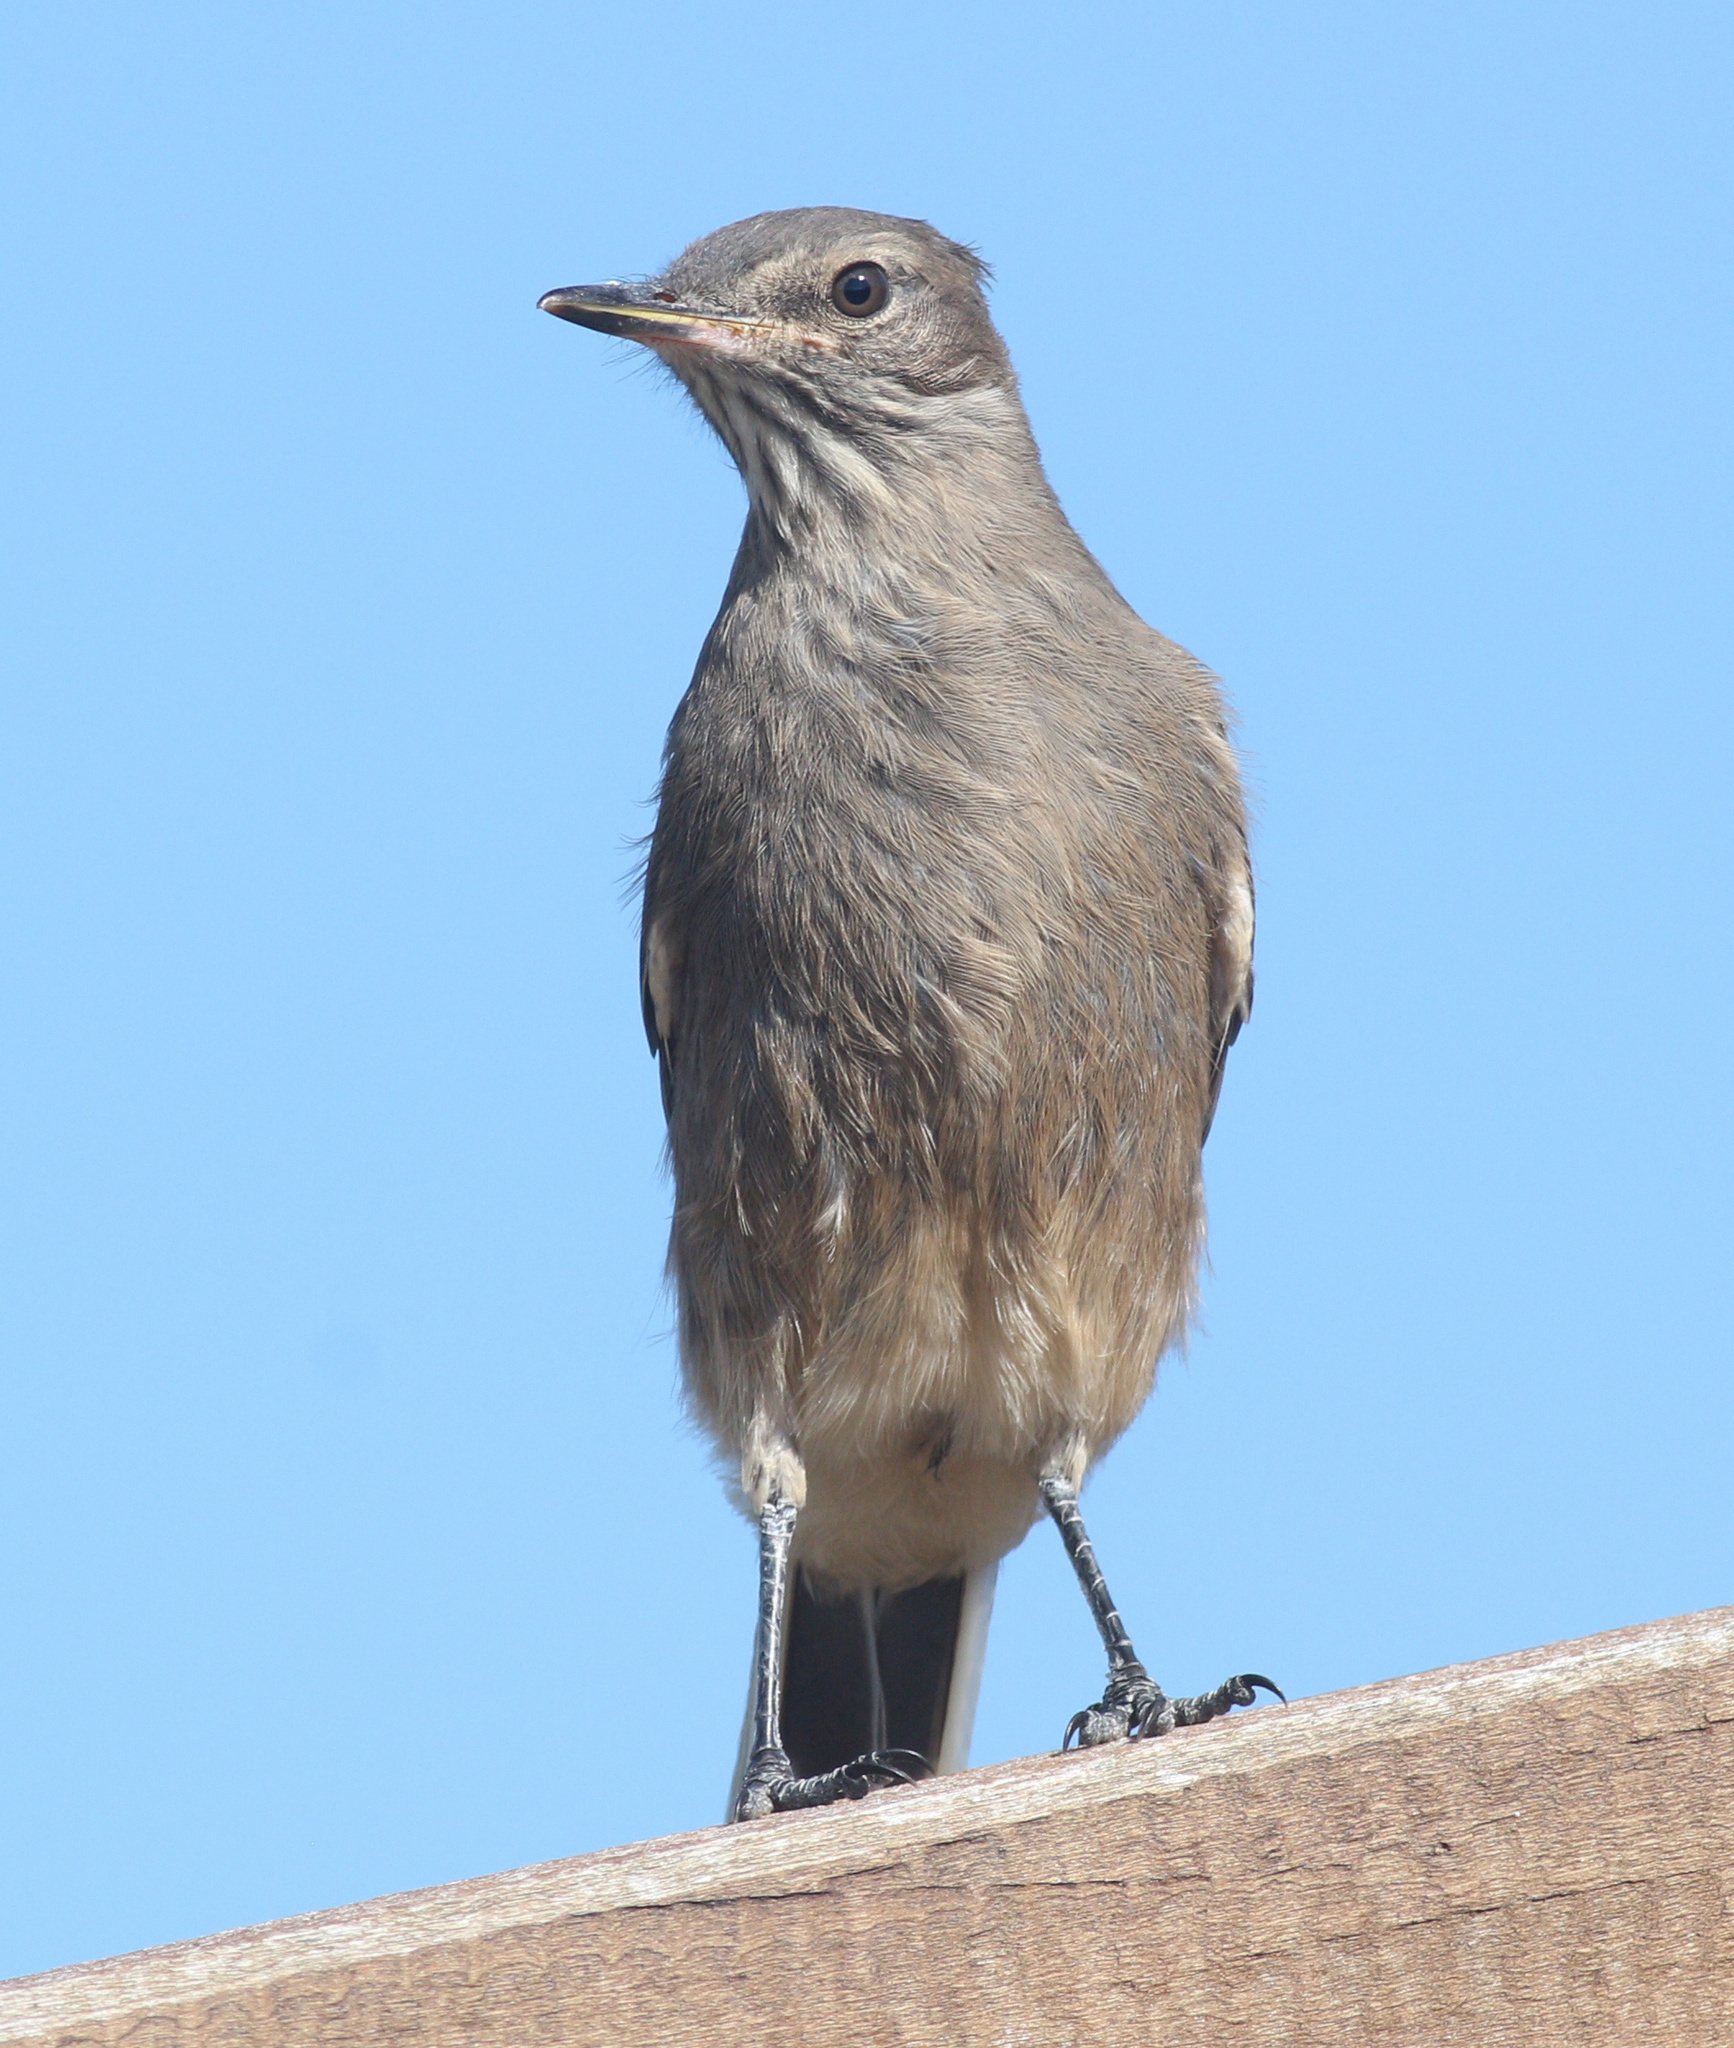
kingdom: Animalia
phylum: Chordata
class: Aves
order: Passeriformes
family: Tyrannidae
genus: Agriornis
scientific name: Agriornis montanus
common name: Black-billed shrike-tyrant
